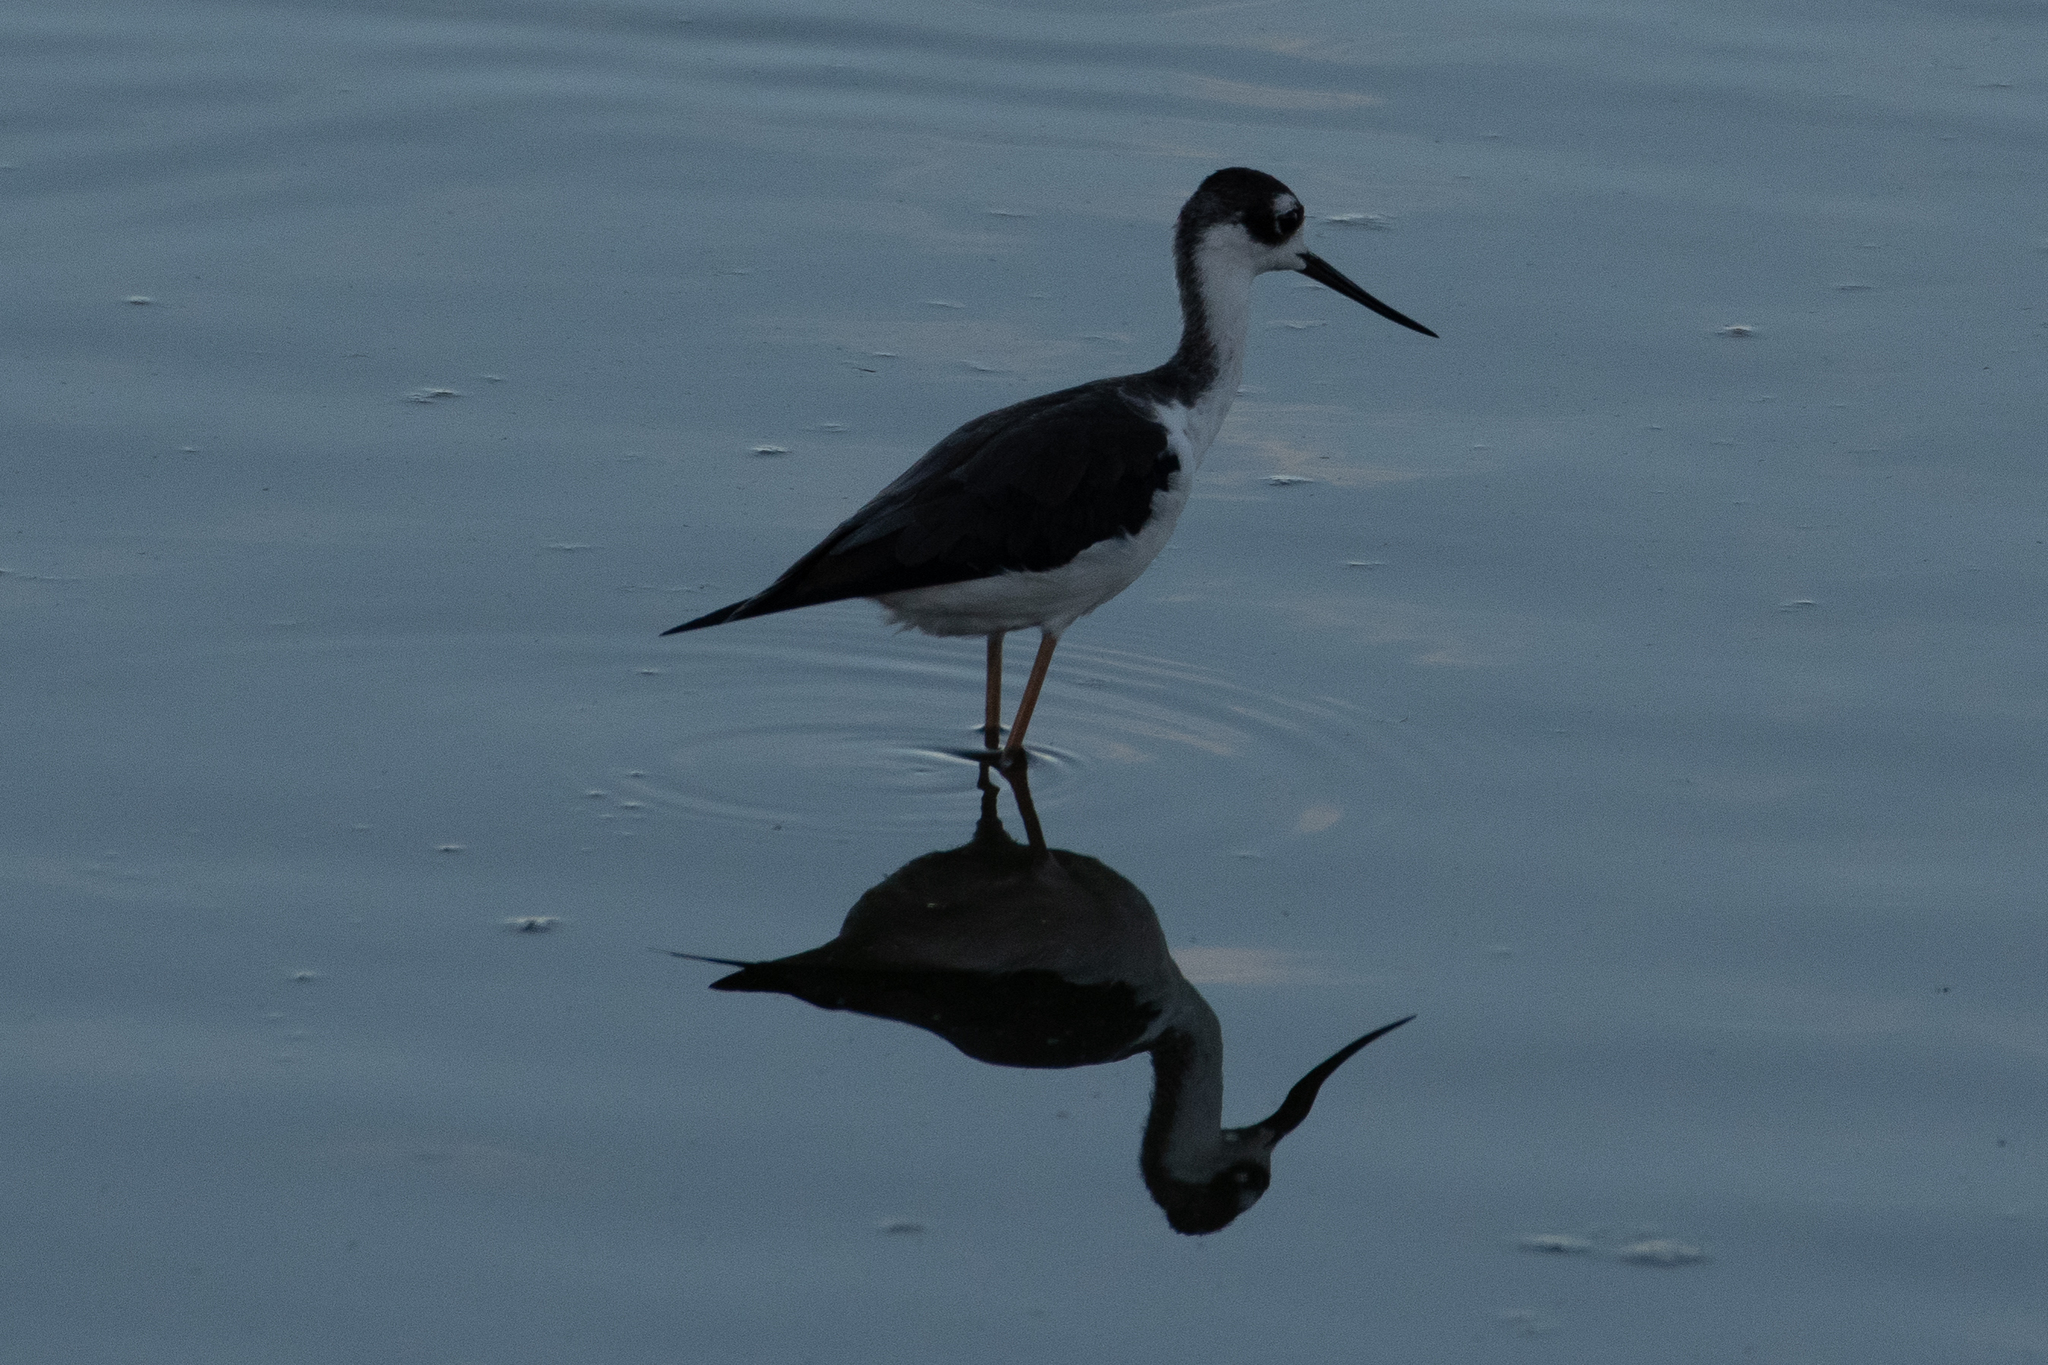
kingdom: Animalia
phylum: Chordata
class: Aves
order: Charadriiformes
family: Recurvirostridae
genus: Himantopus
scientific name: Himantopus mexicanus
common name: Black-necked stilt
